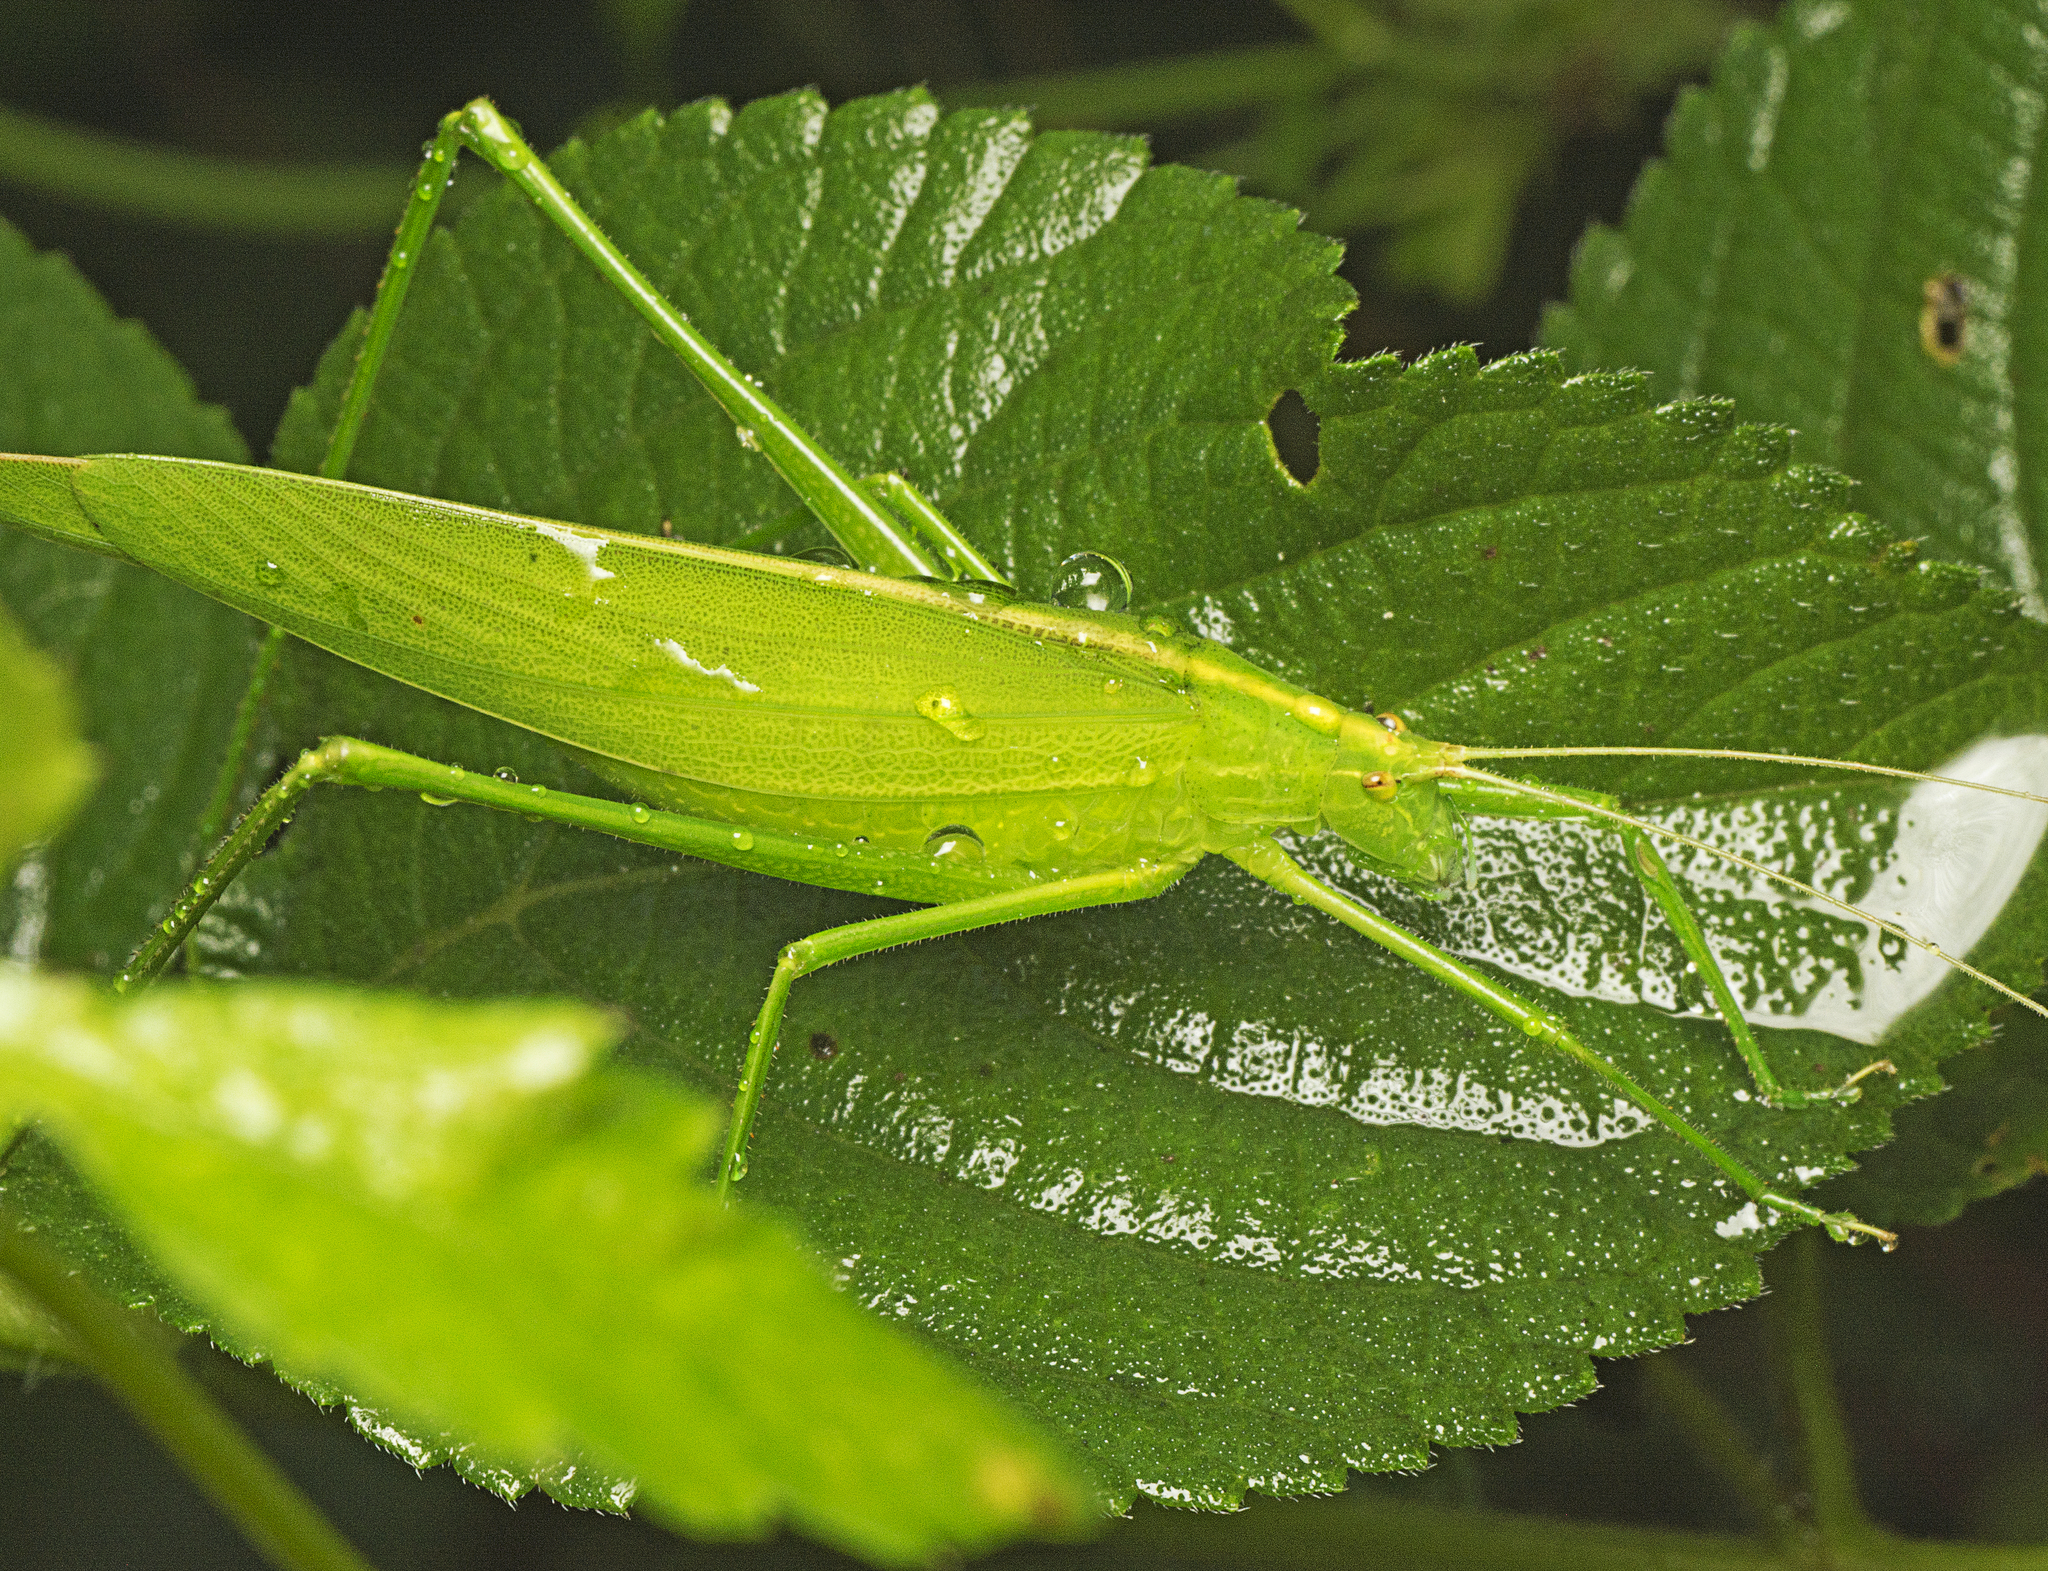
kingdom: Animalia
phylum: Arthropoda
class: Insecta
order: Orthoptera
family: Tettigoniidae
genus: Ducetia
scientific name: Ducetia antipoda
